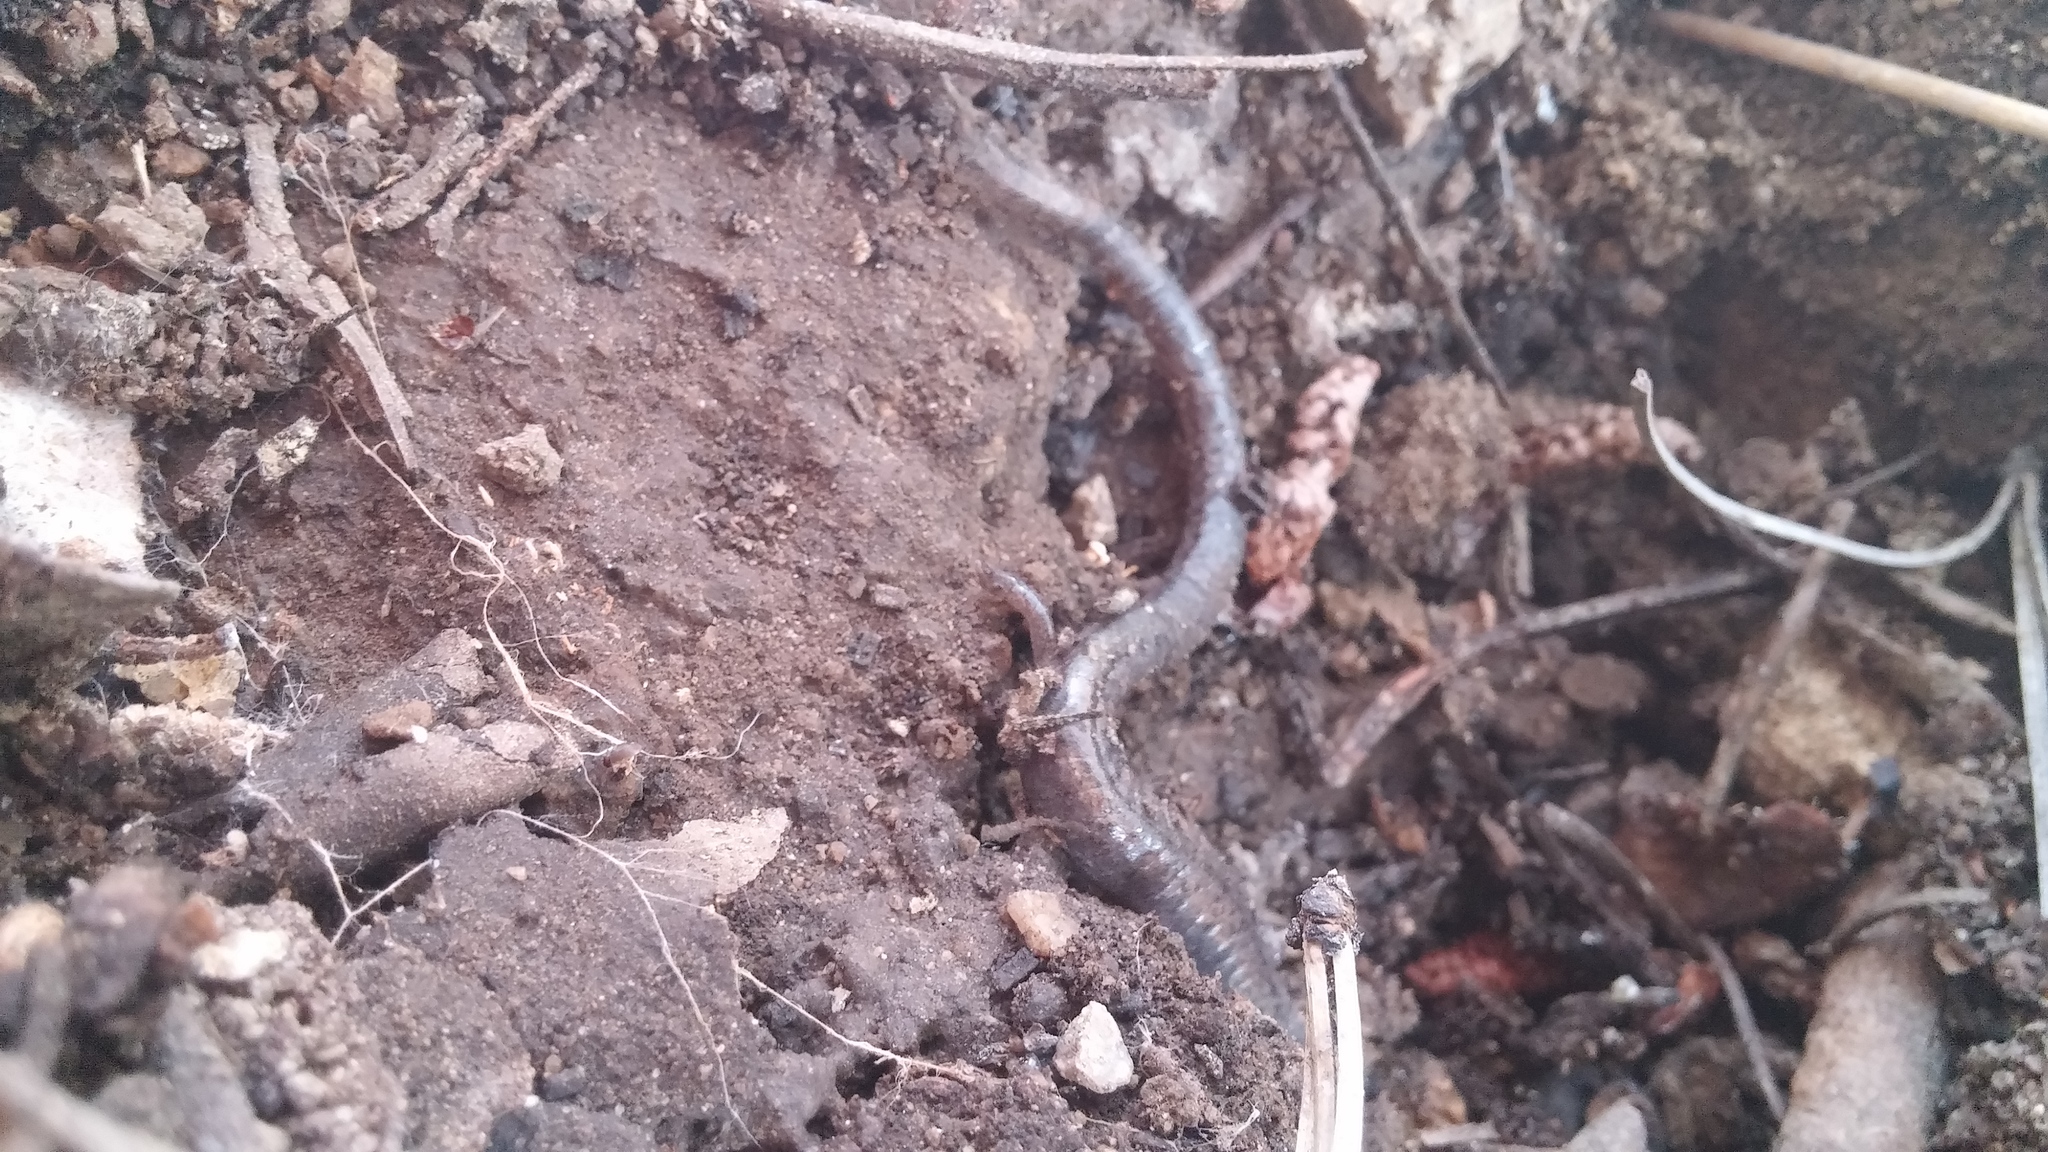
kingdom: Animalia
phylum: Chordata
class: Amphibia
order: Caudata
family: Plethodontidae
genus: Batrachoseps
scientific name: Batrachoseps major
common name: Garden slender salamander
